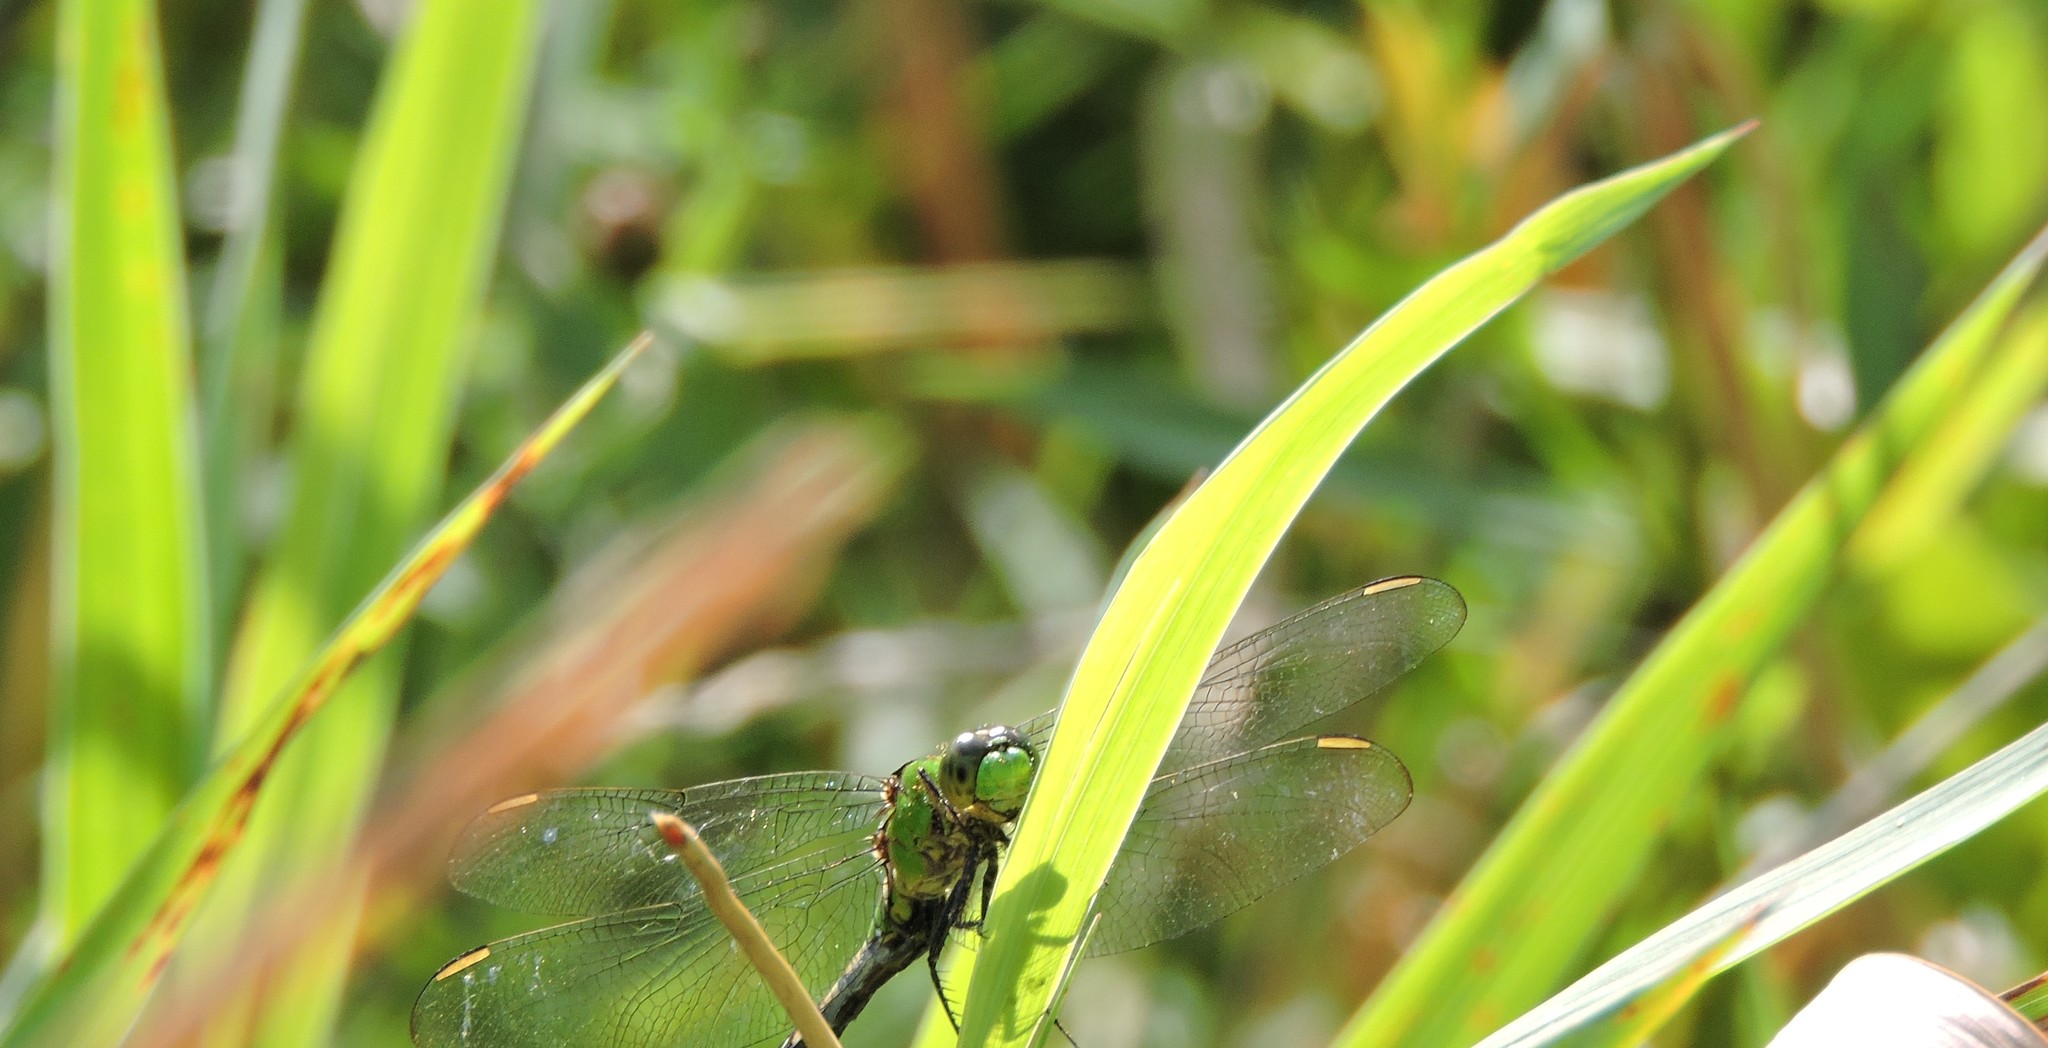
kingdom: Animalia
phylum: Arthropoda
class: Insecta
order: Odonata
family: Libellulidae
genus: Erythemis
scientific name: Erythemis simplicicollis
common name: Eastern pondhawk
